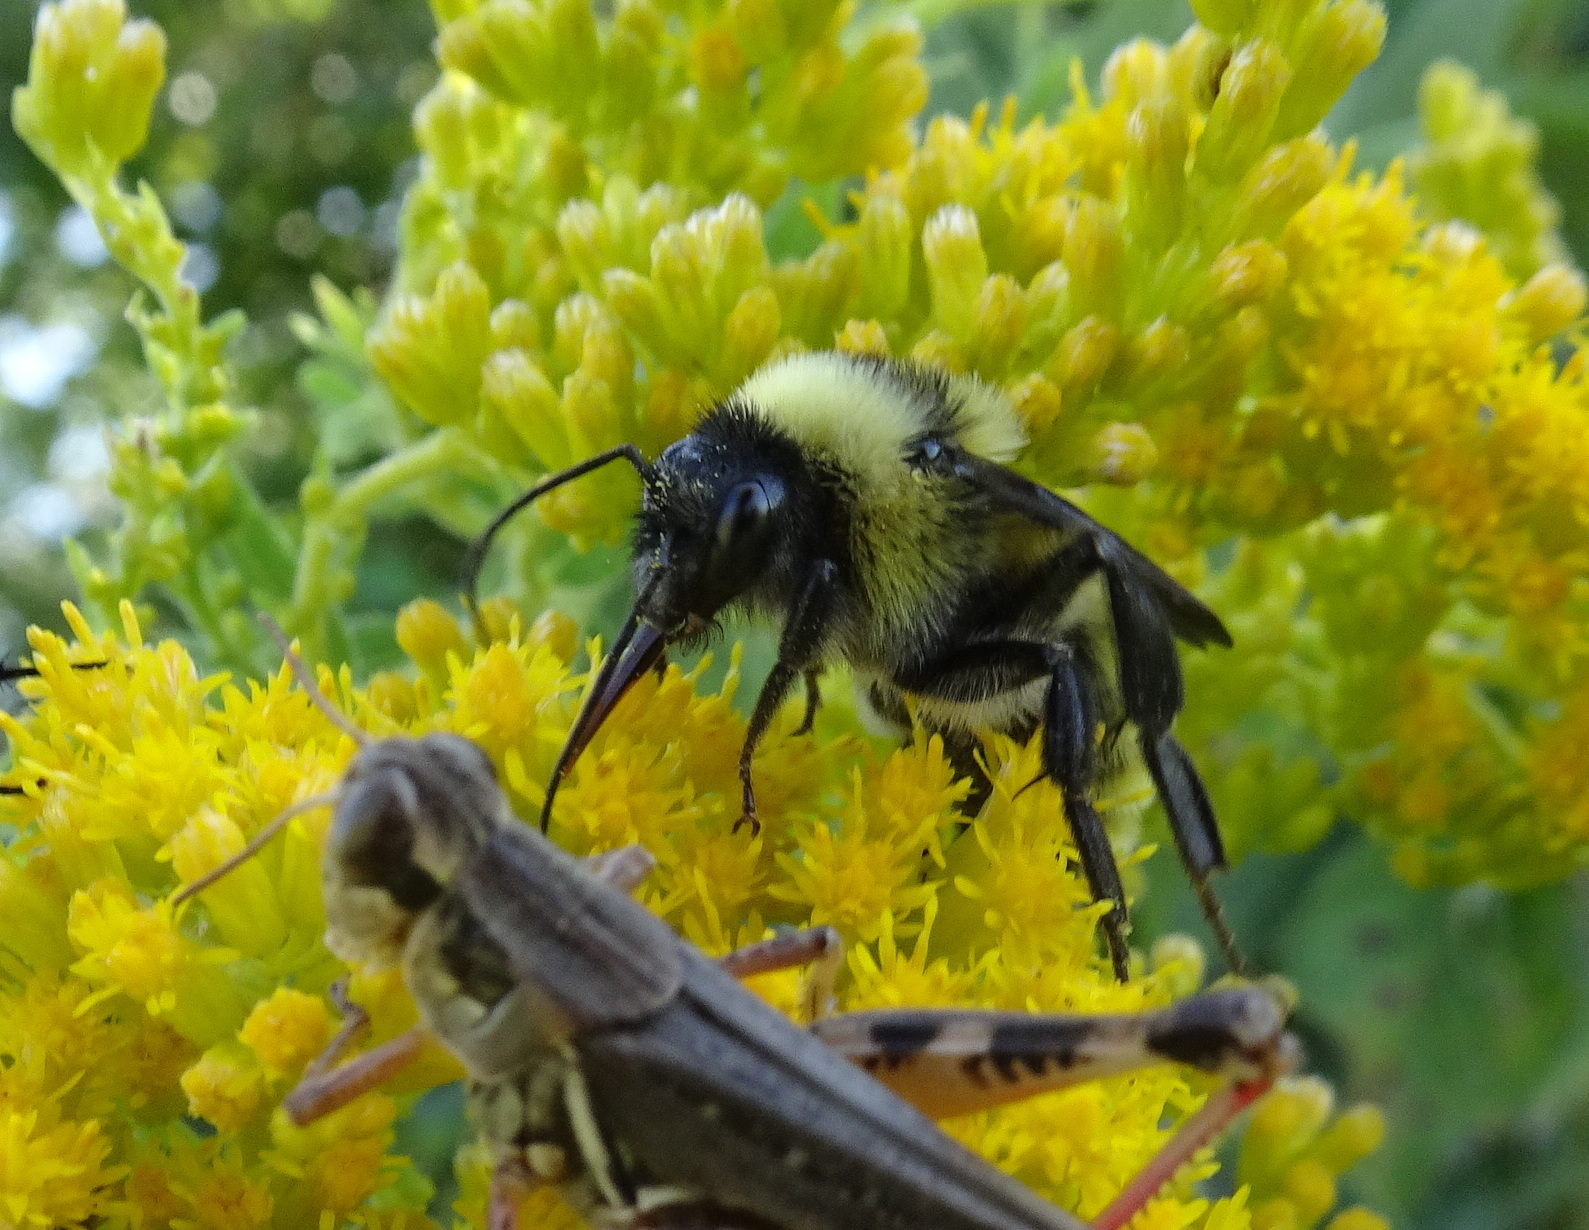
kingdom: Animalia
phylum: Arthropoda
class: Insecta
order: Hymenoptera
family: Apidae
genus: Bombus
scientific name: Bombus pensylvanicus
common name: Bumble bee
